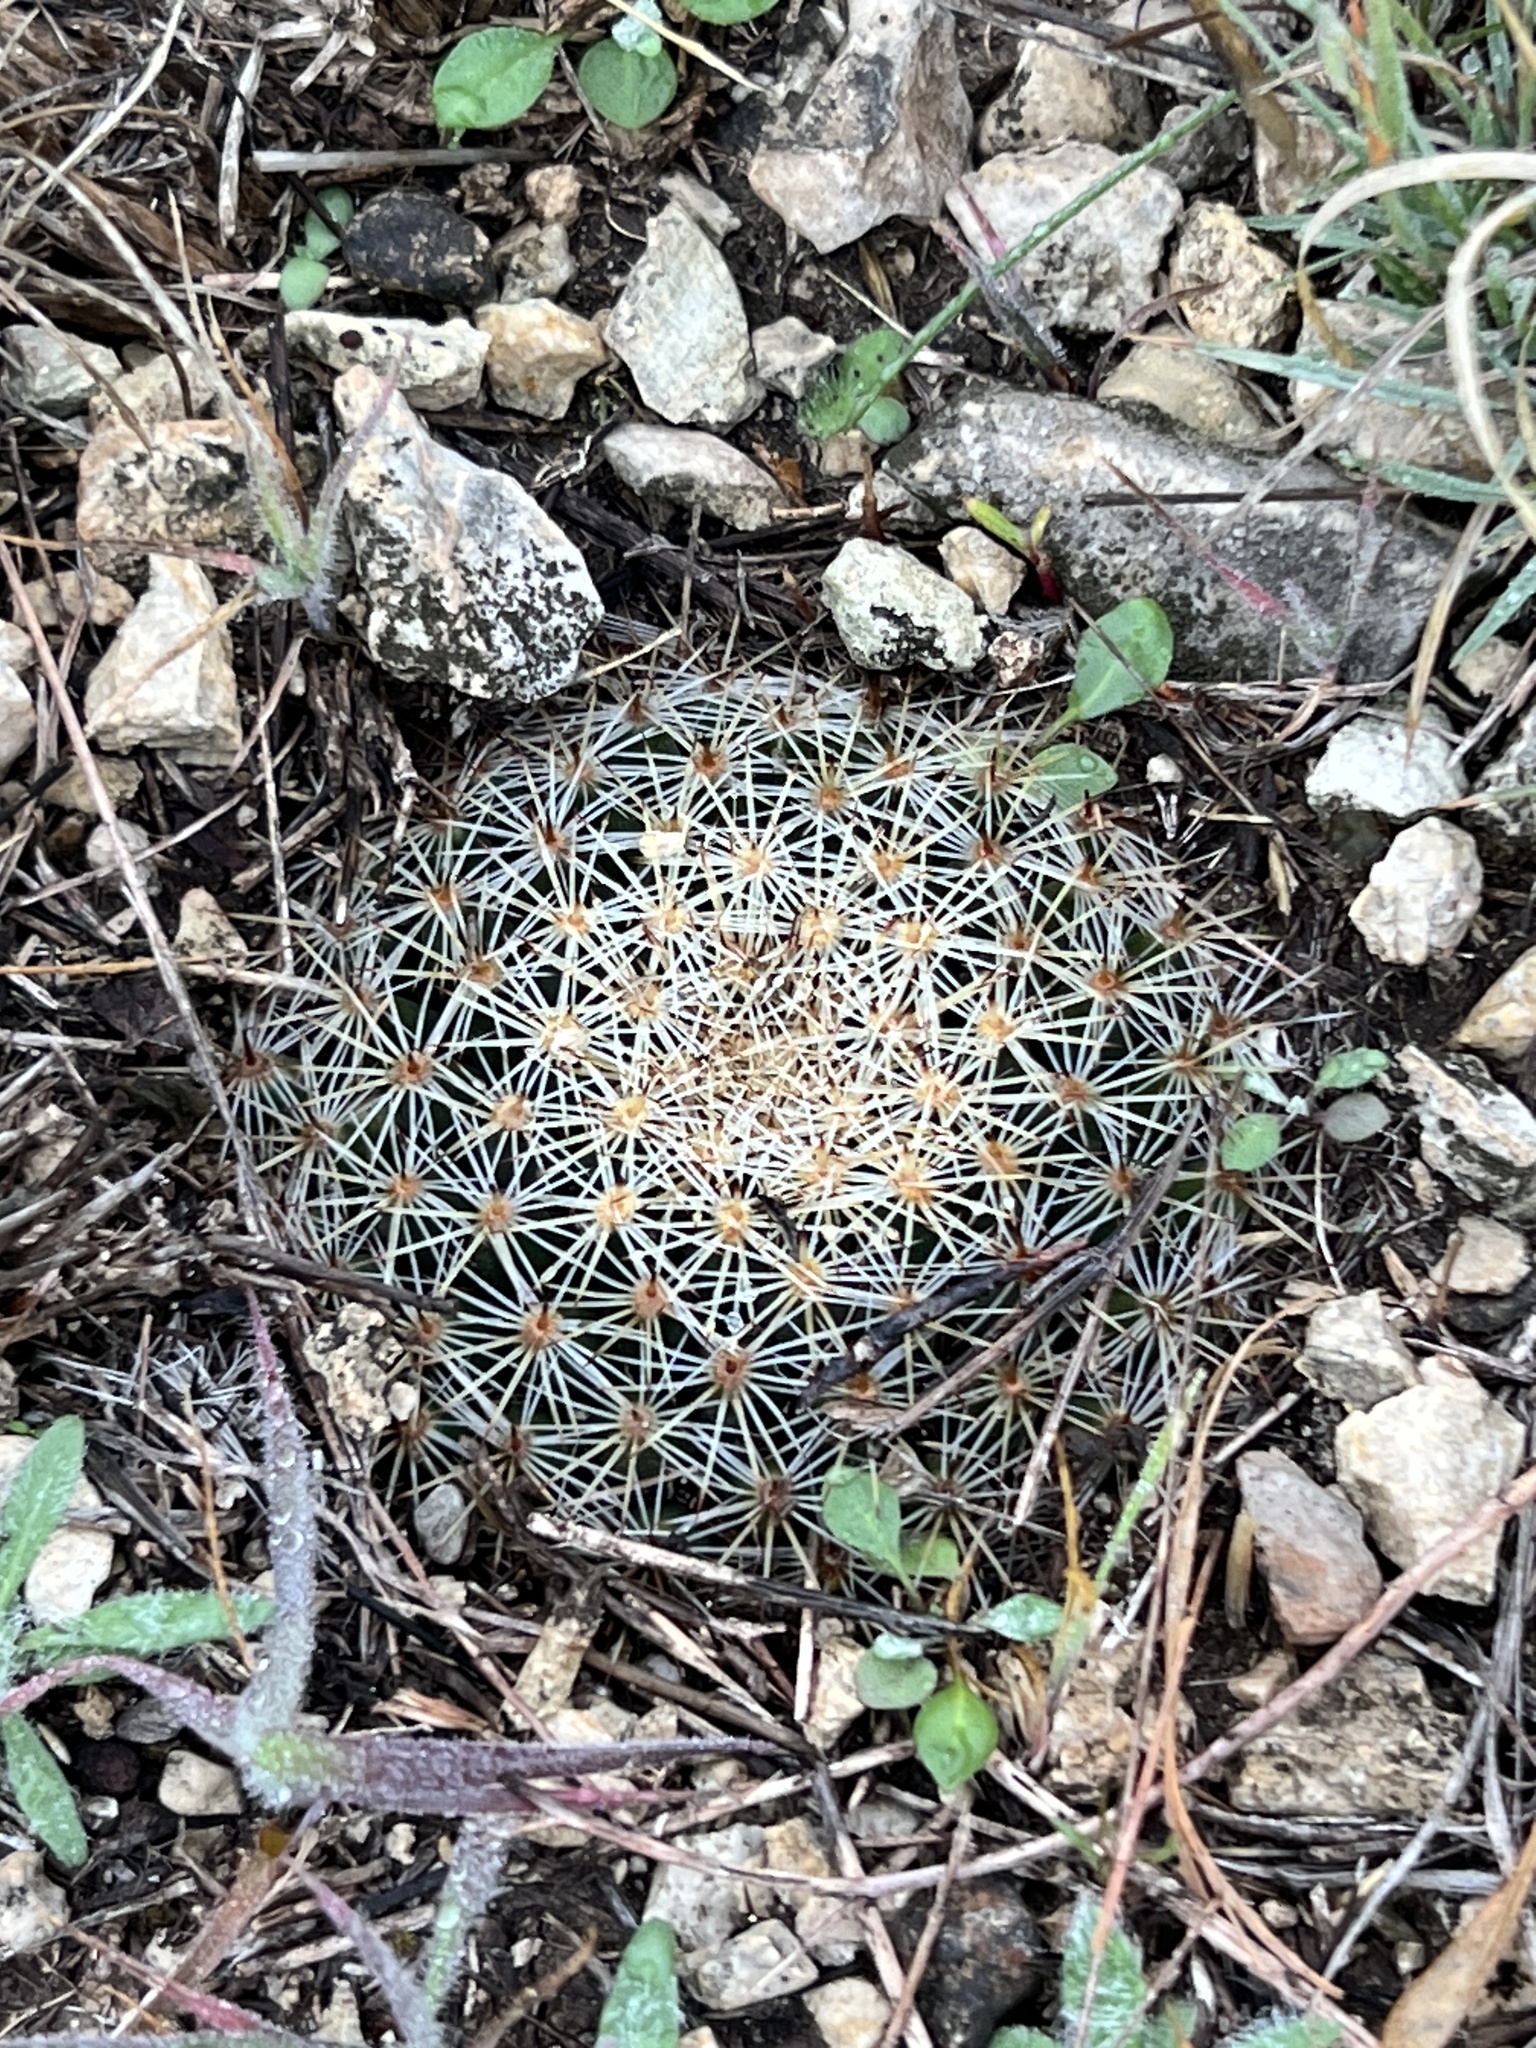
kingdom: Plantae
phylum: Tracheophyta
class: Magnoliopsida
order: Caryophyllales
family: Cactaceae
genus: Mammillaria
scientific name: Mammillaria heyderi
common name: Little nipple cactus
